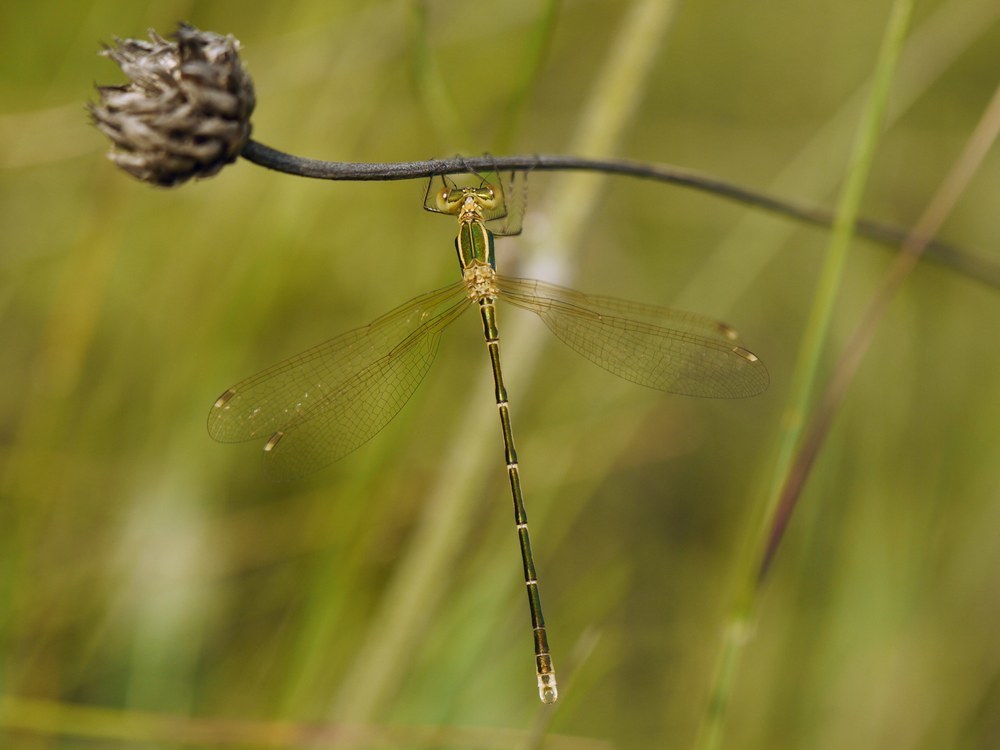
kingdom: Animalia
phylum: Arthropoda
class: Insecta
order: Odonata
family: Lestidae
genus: Lestes
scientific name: Lestes barbarus
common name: Migrant spreadwing
